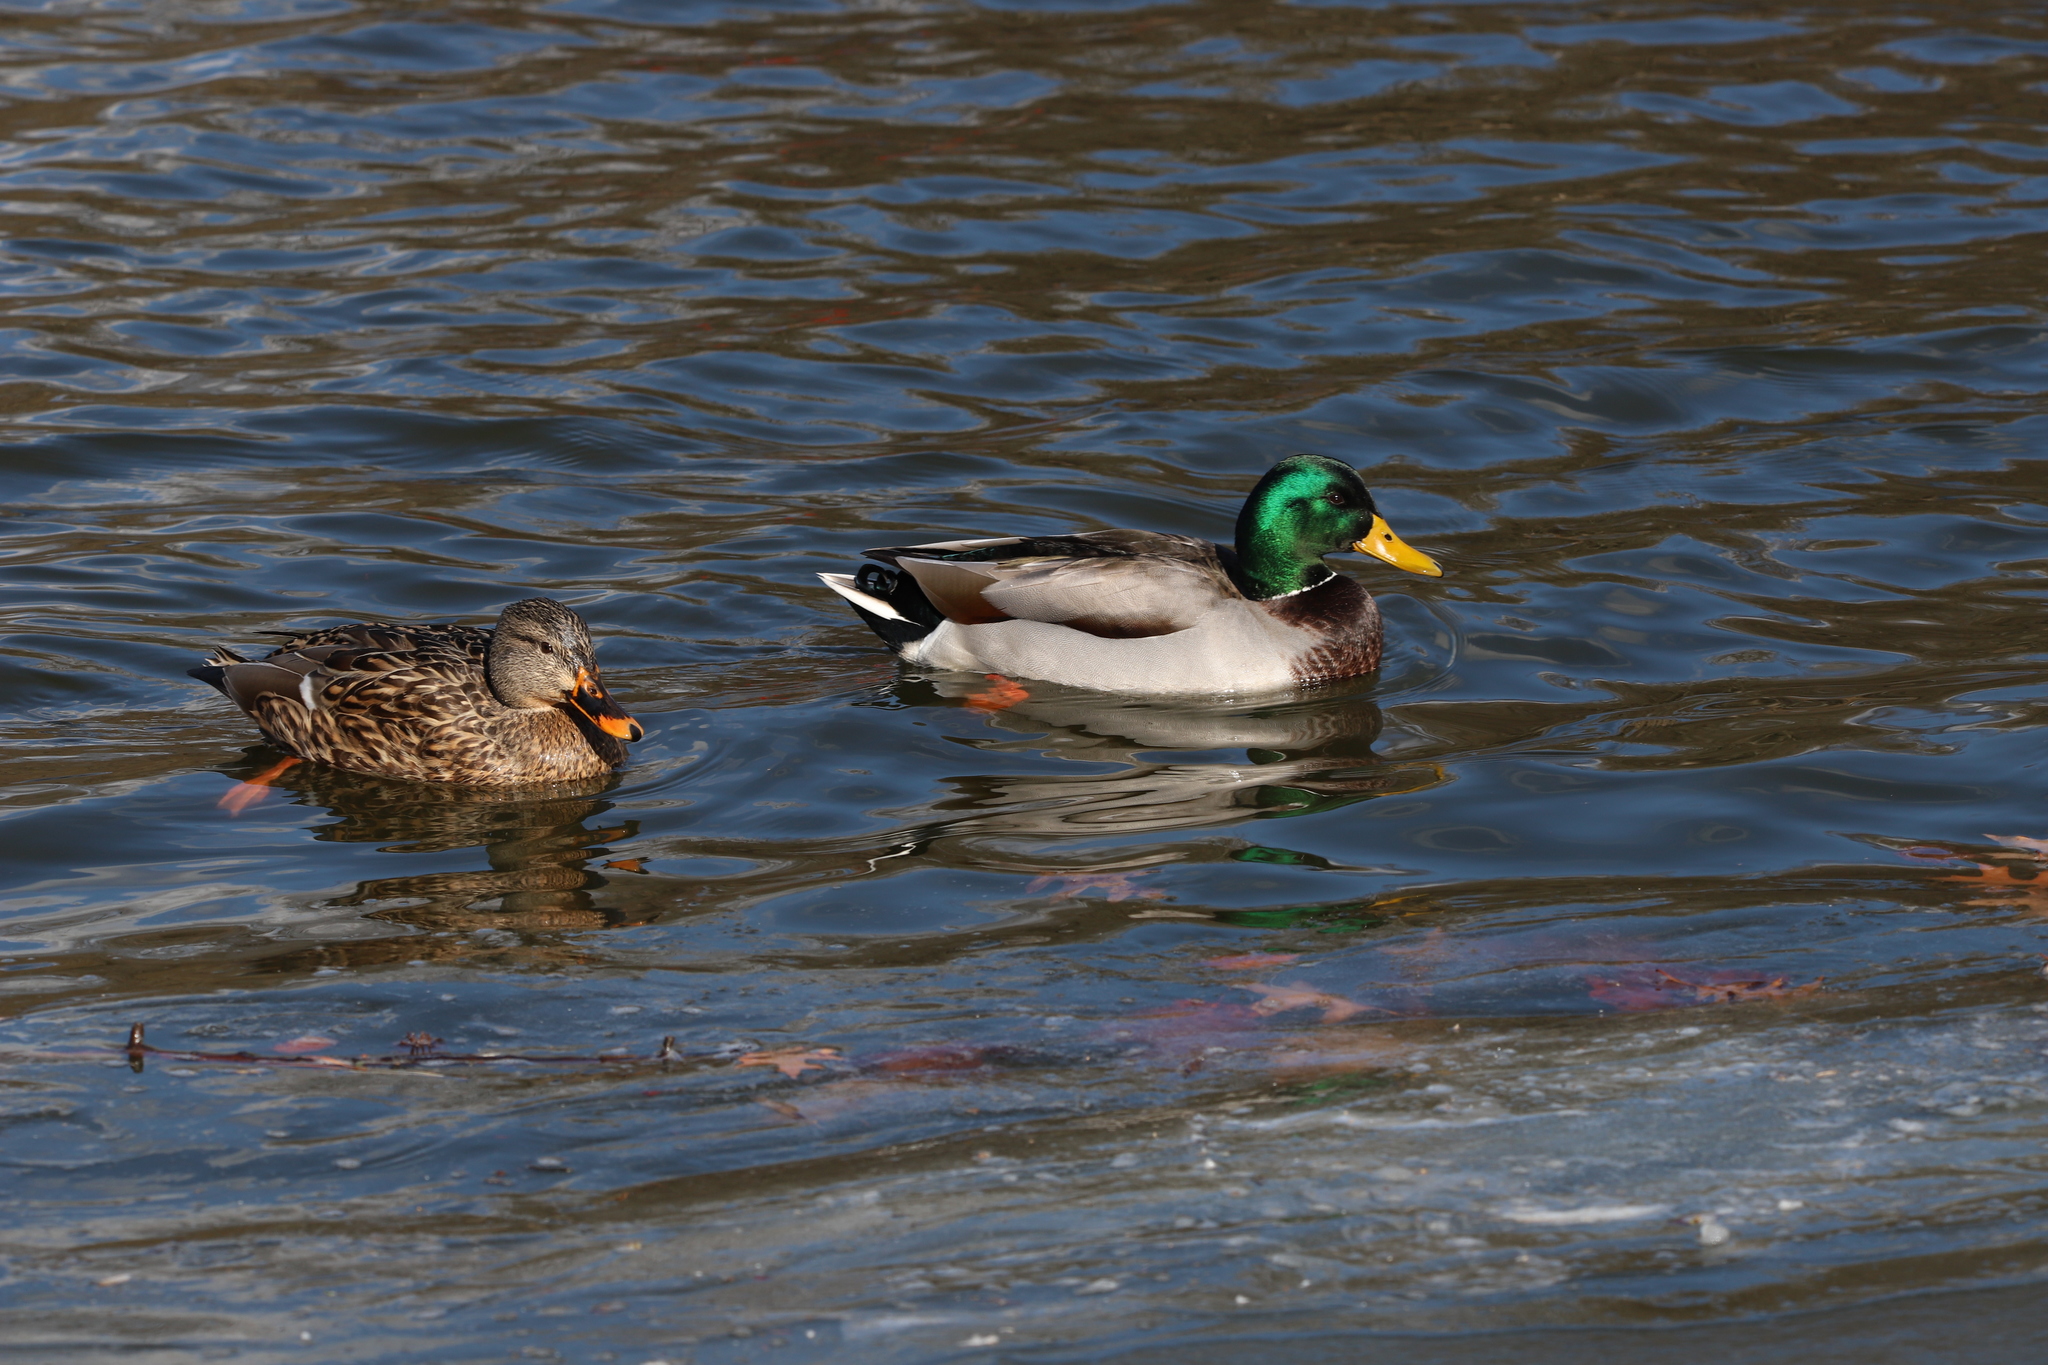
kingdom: Animalia
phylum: Chordata
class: Aves
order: Anseriformes
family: Anatidae
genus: Anas
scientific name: Anas platyrhynchos
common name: Mallard
